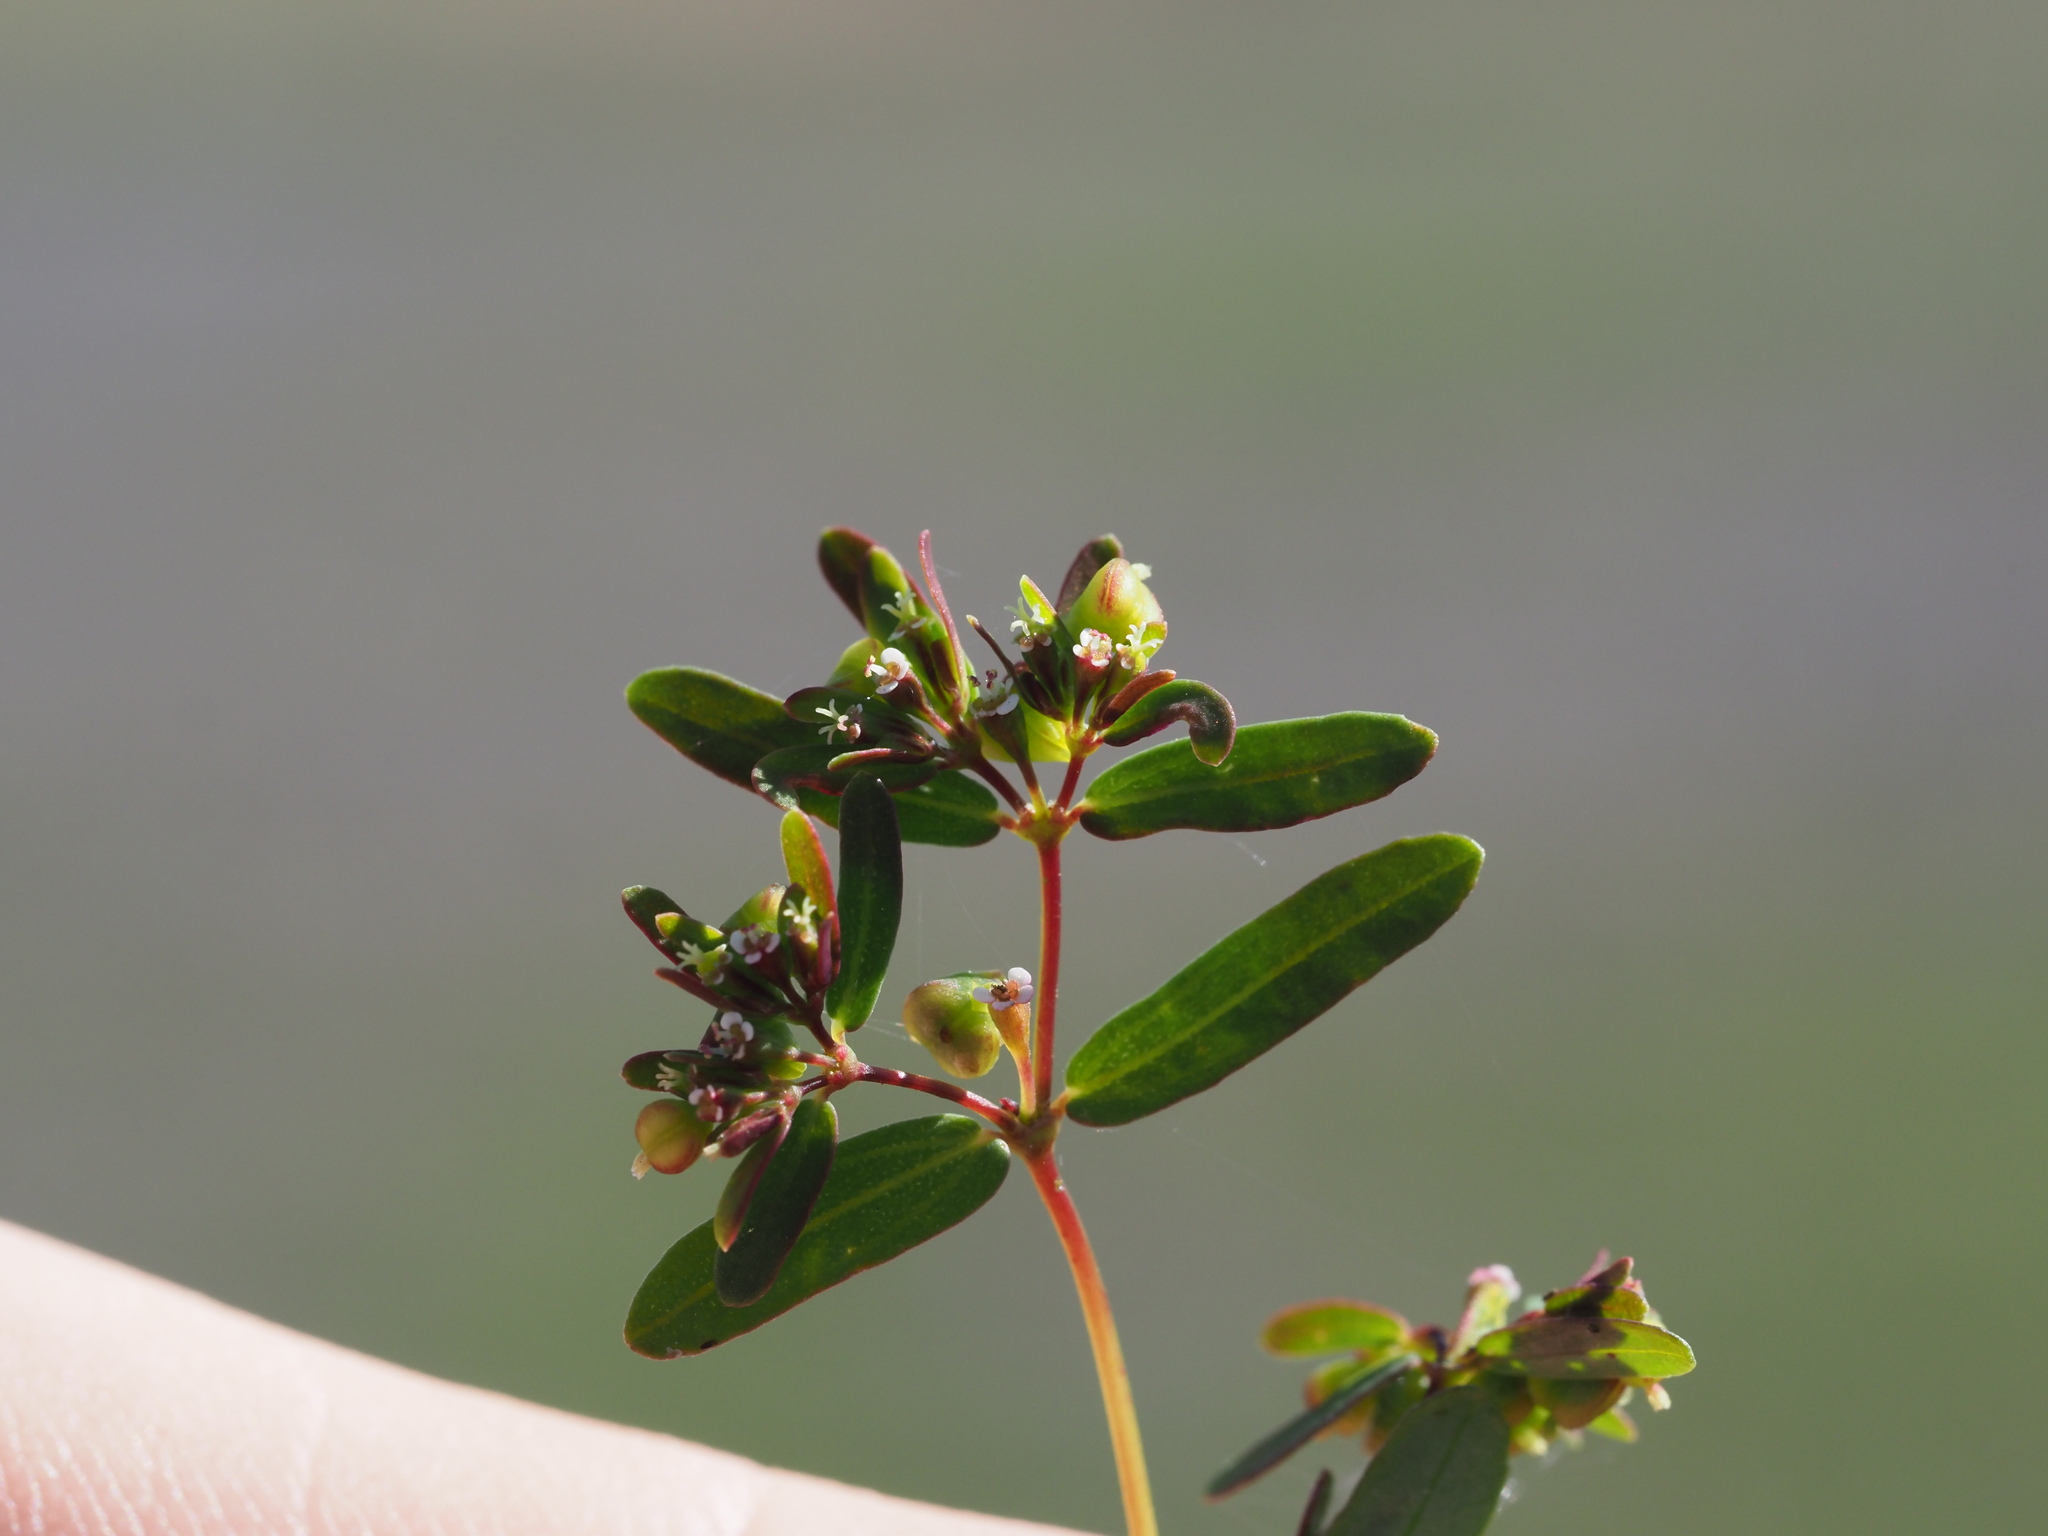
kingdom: Plantae
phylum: Tracheophyta
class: Magnoliopsida
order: Malpighiales
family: Euphorbiaceae
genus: Euphorbia
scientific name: Euphorbia hyssopifolia
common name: Hyssopleaf sandmat
